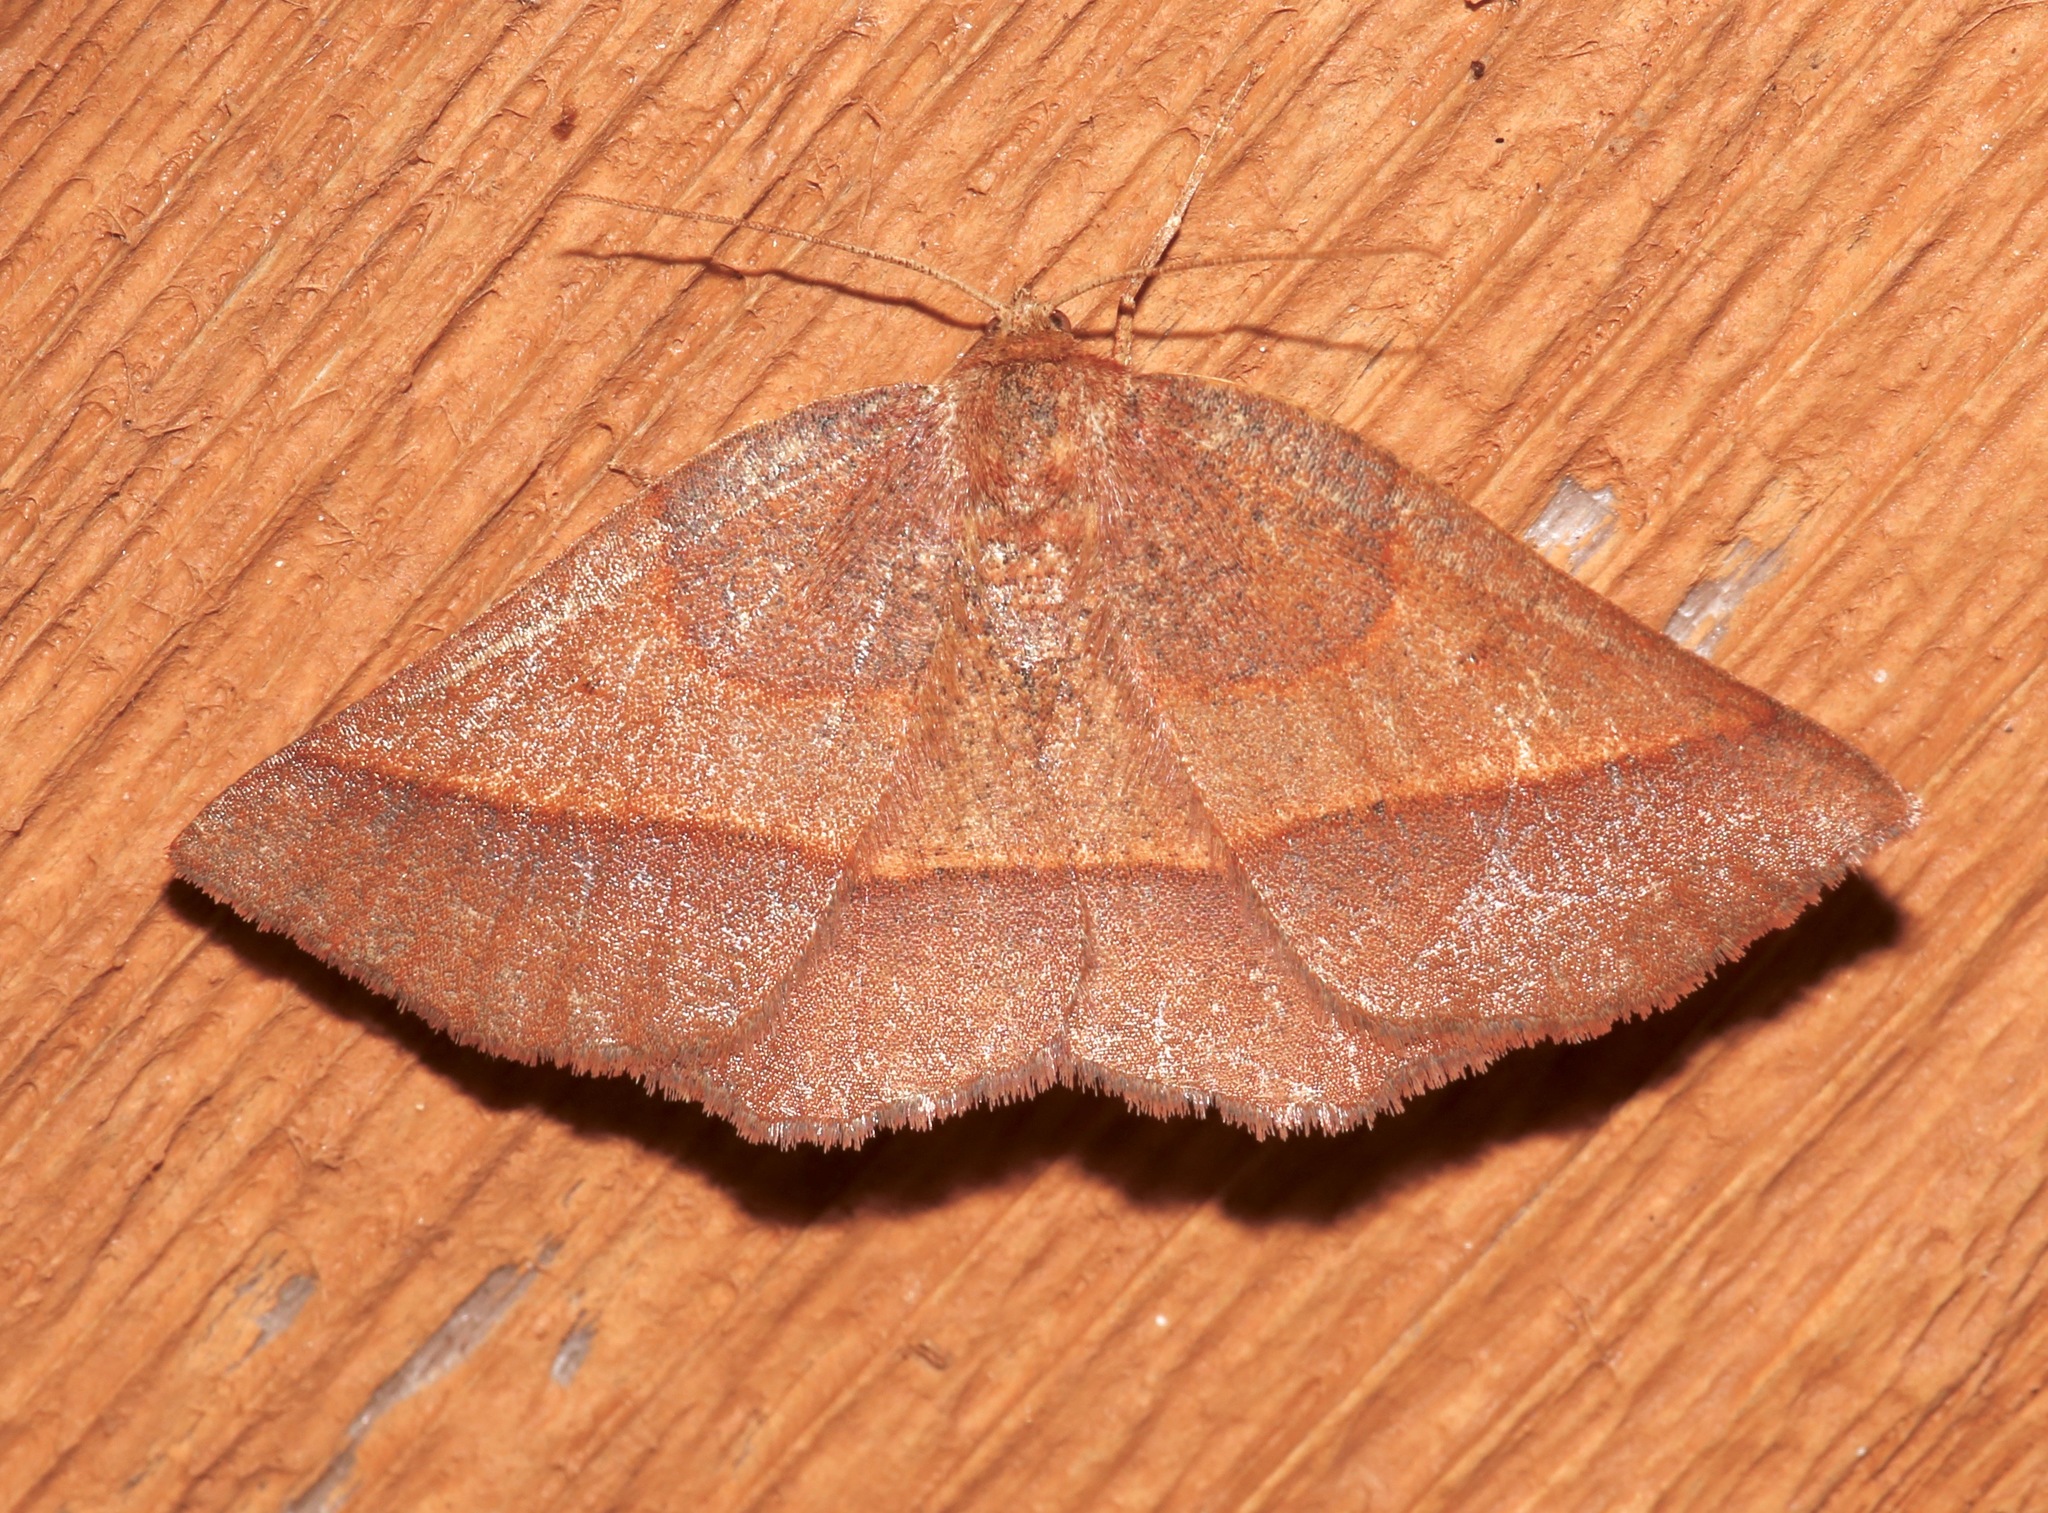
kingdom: Animalia
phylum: Arthropoda
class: Insecta
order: Lepidoptera
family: Geometridae
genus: Metarranthis
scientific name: Metarranthis obfirmaria
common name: Yellow-washed metarranthis
